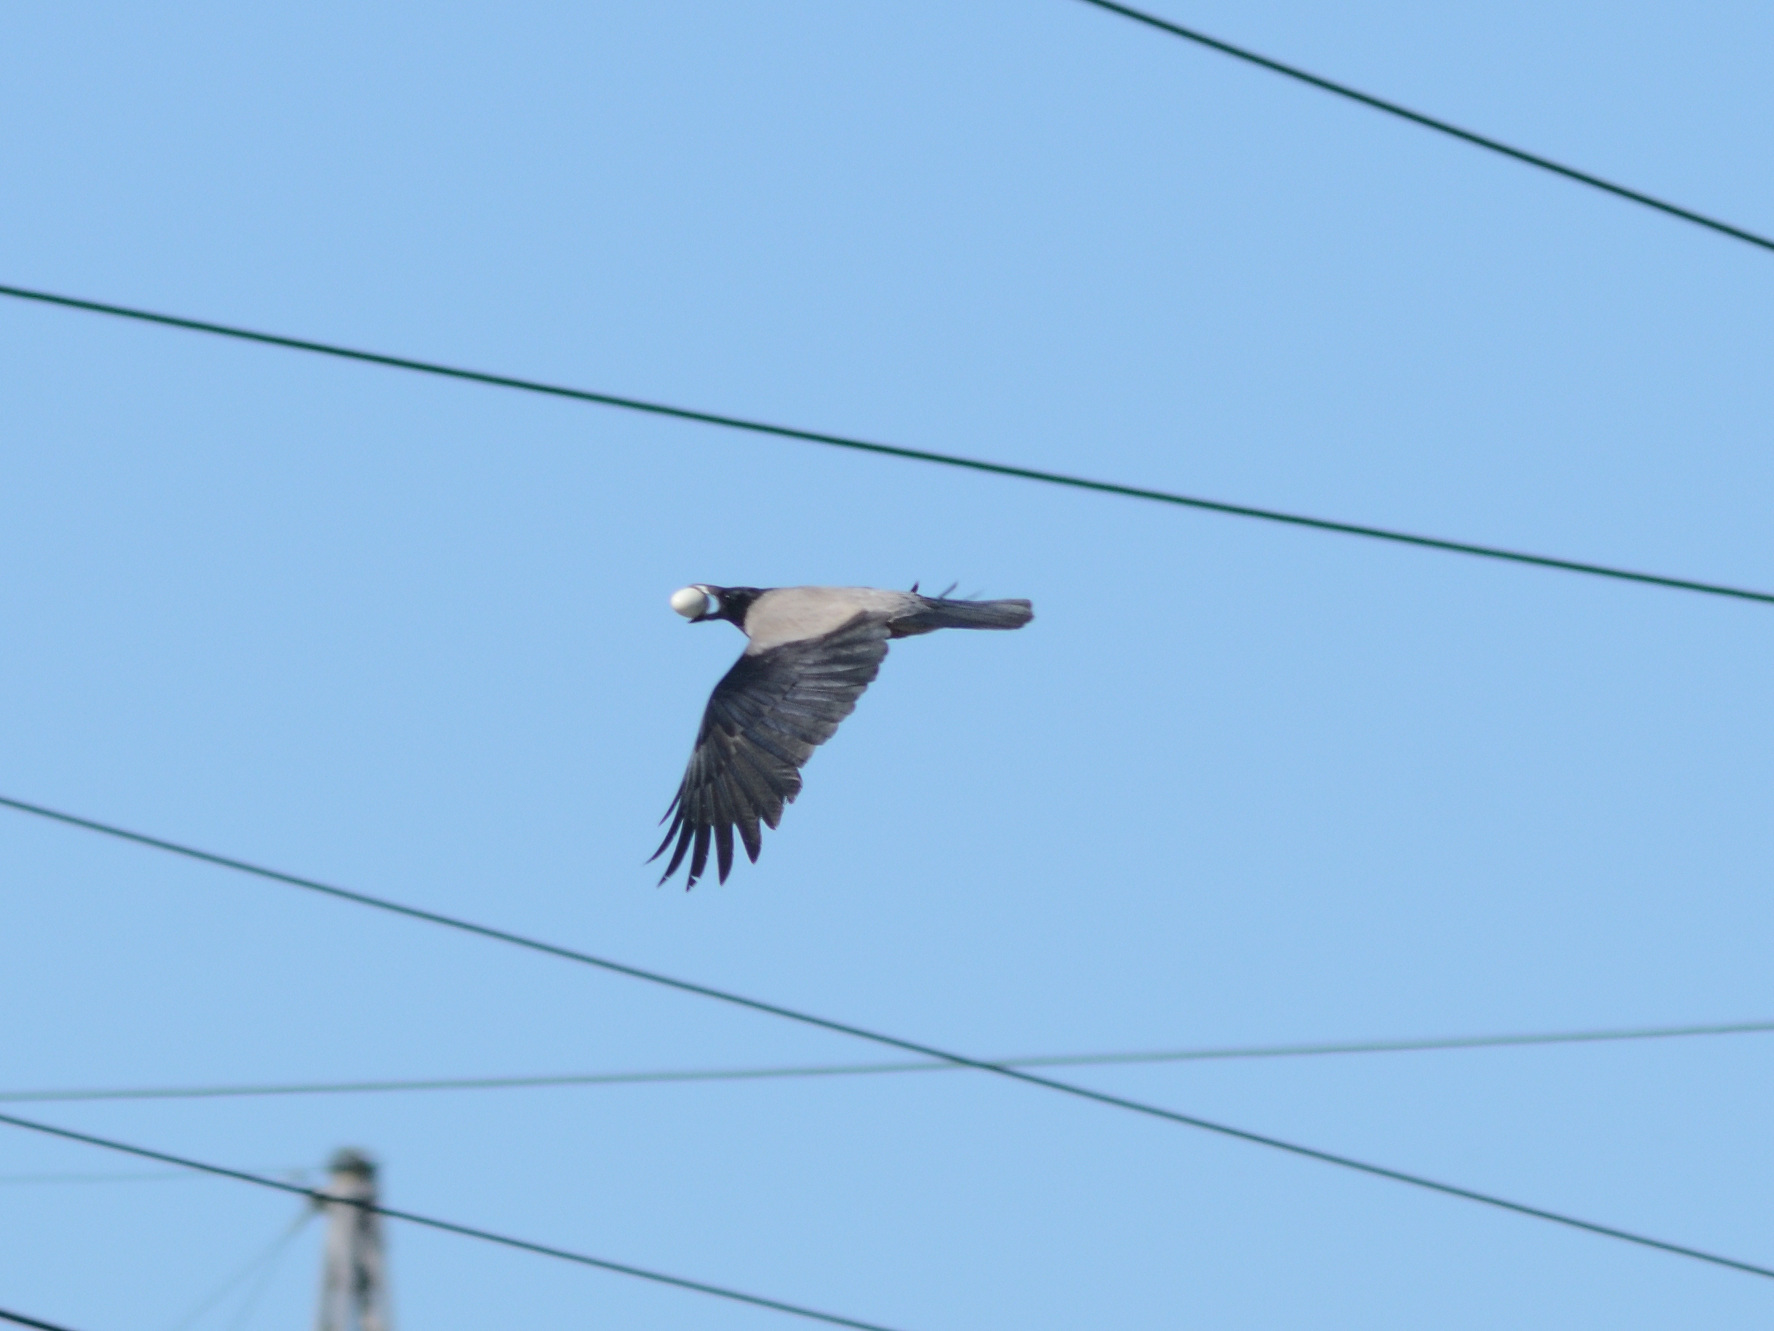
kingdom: Animalia
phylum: Chordata
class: Aves
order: Passeriformes
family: Corvidae
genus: Corvus
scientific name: Corvus cornix
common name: Hooded crow
